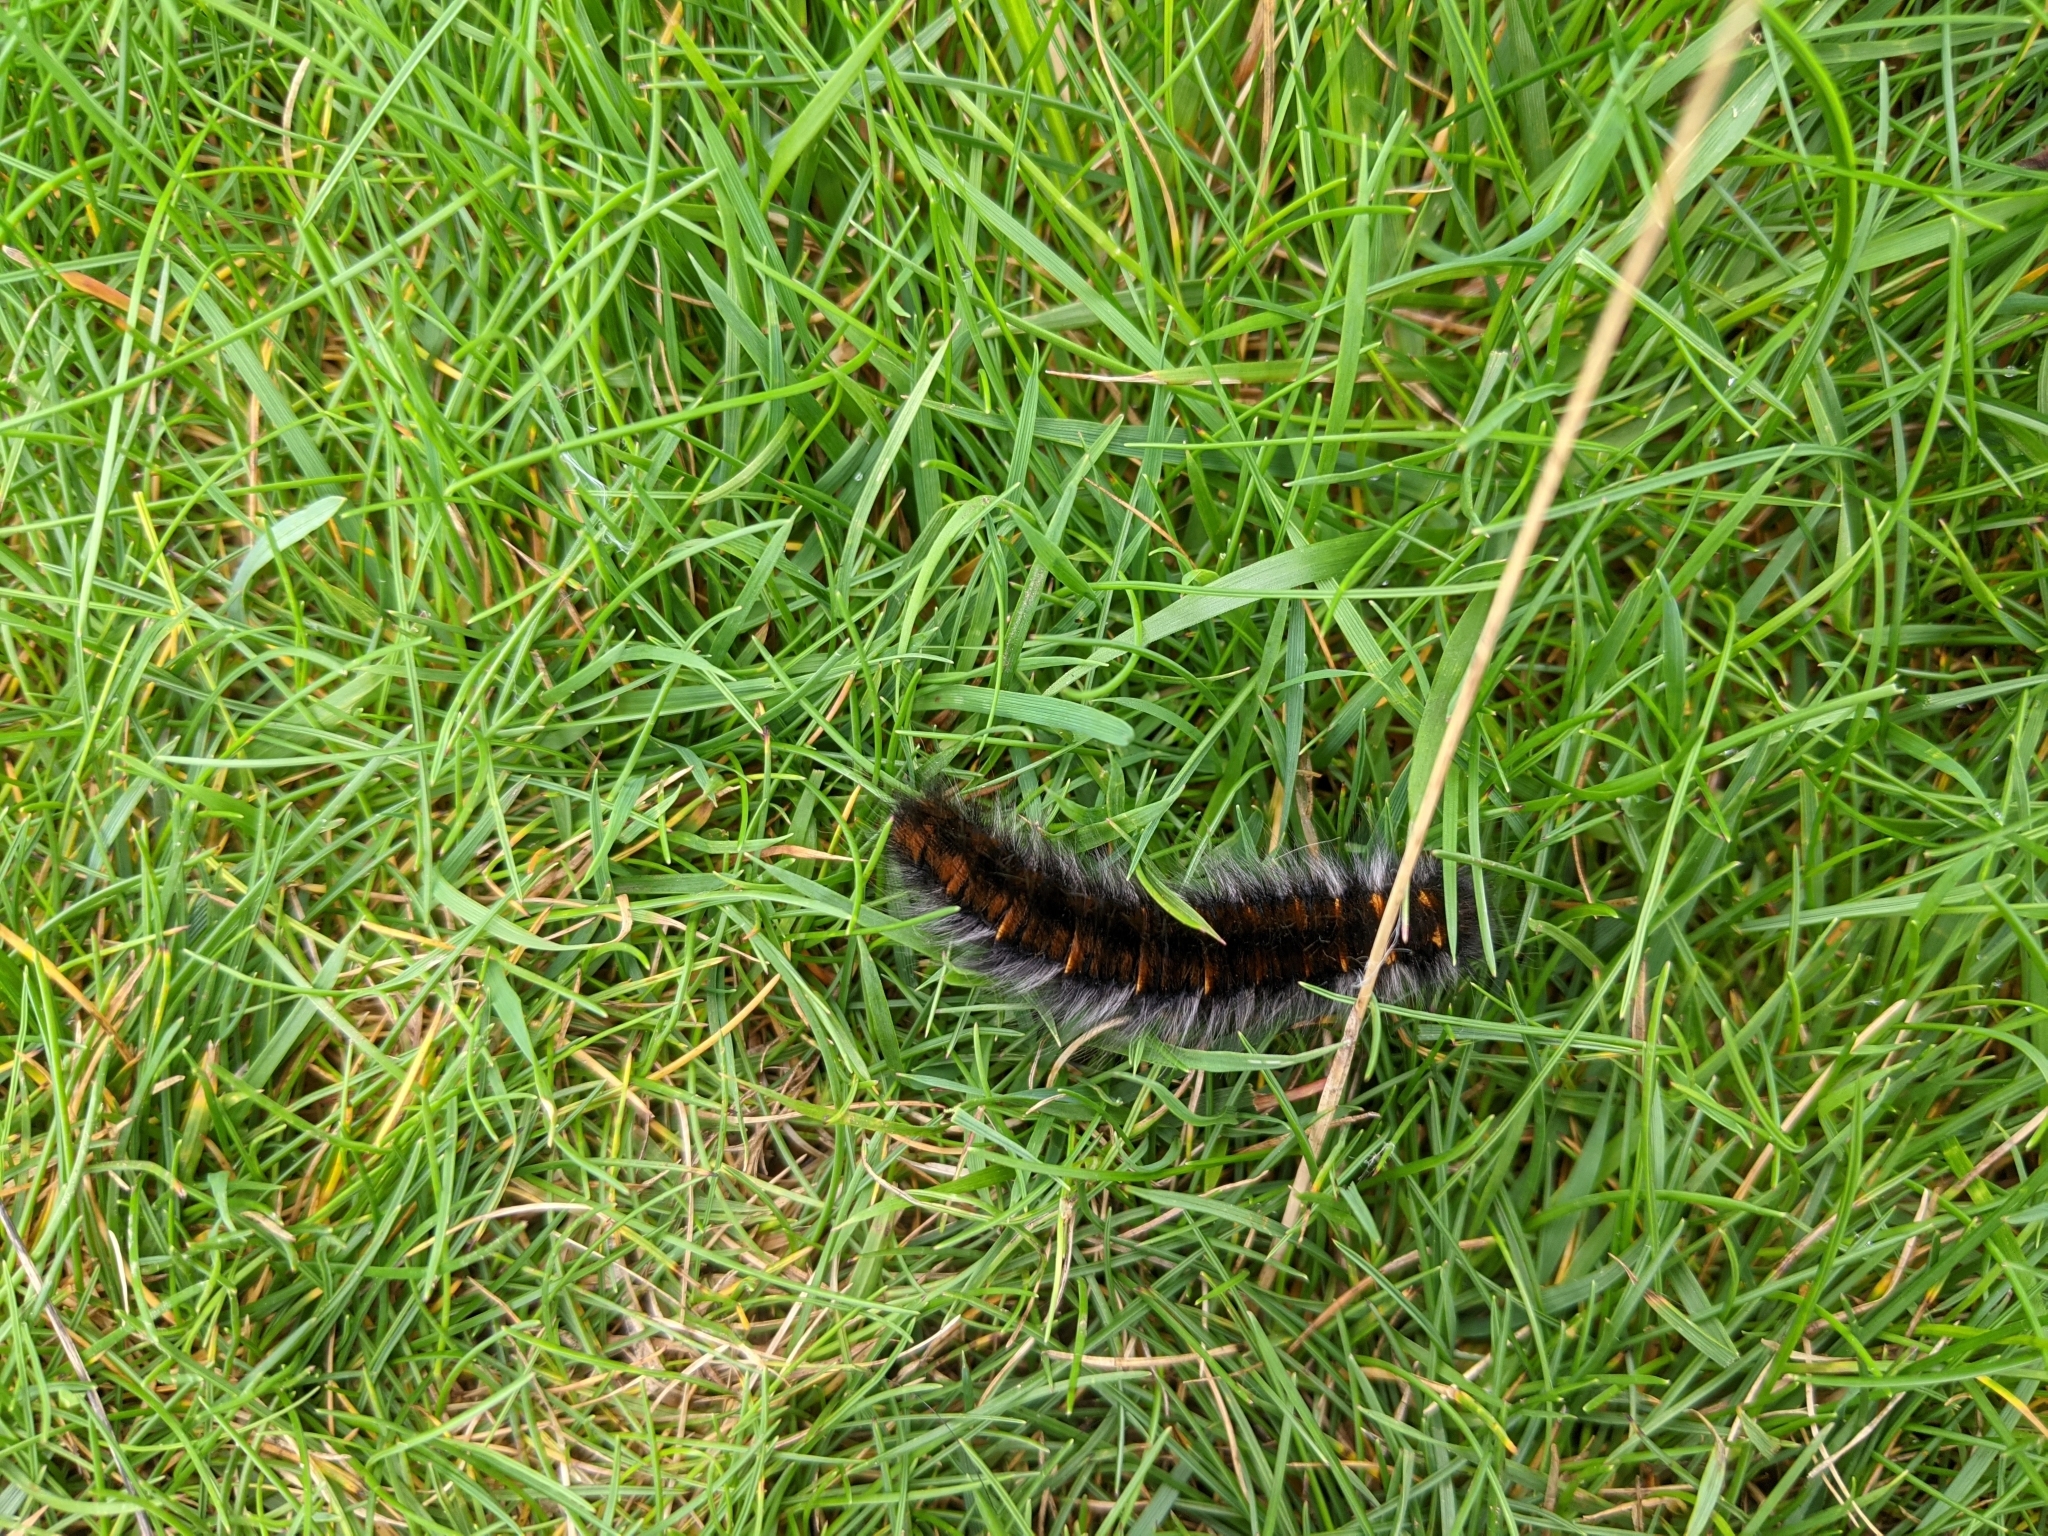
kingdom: Animalia
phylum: Arthropoda
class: Insecta
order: Lepidoptera
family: Lasiocampidae
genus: Macrothylacia
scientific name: Macrothylacia rubi
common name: Fox moth
